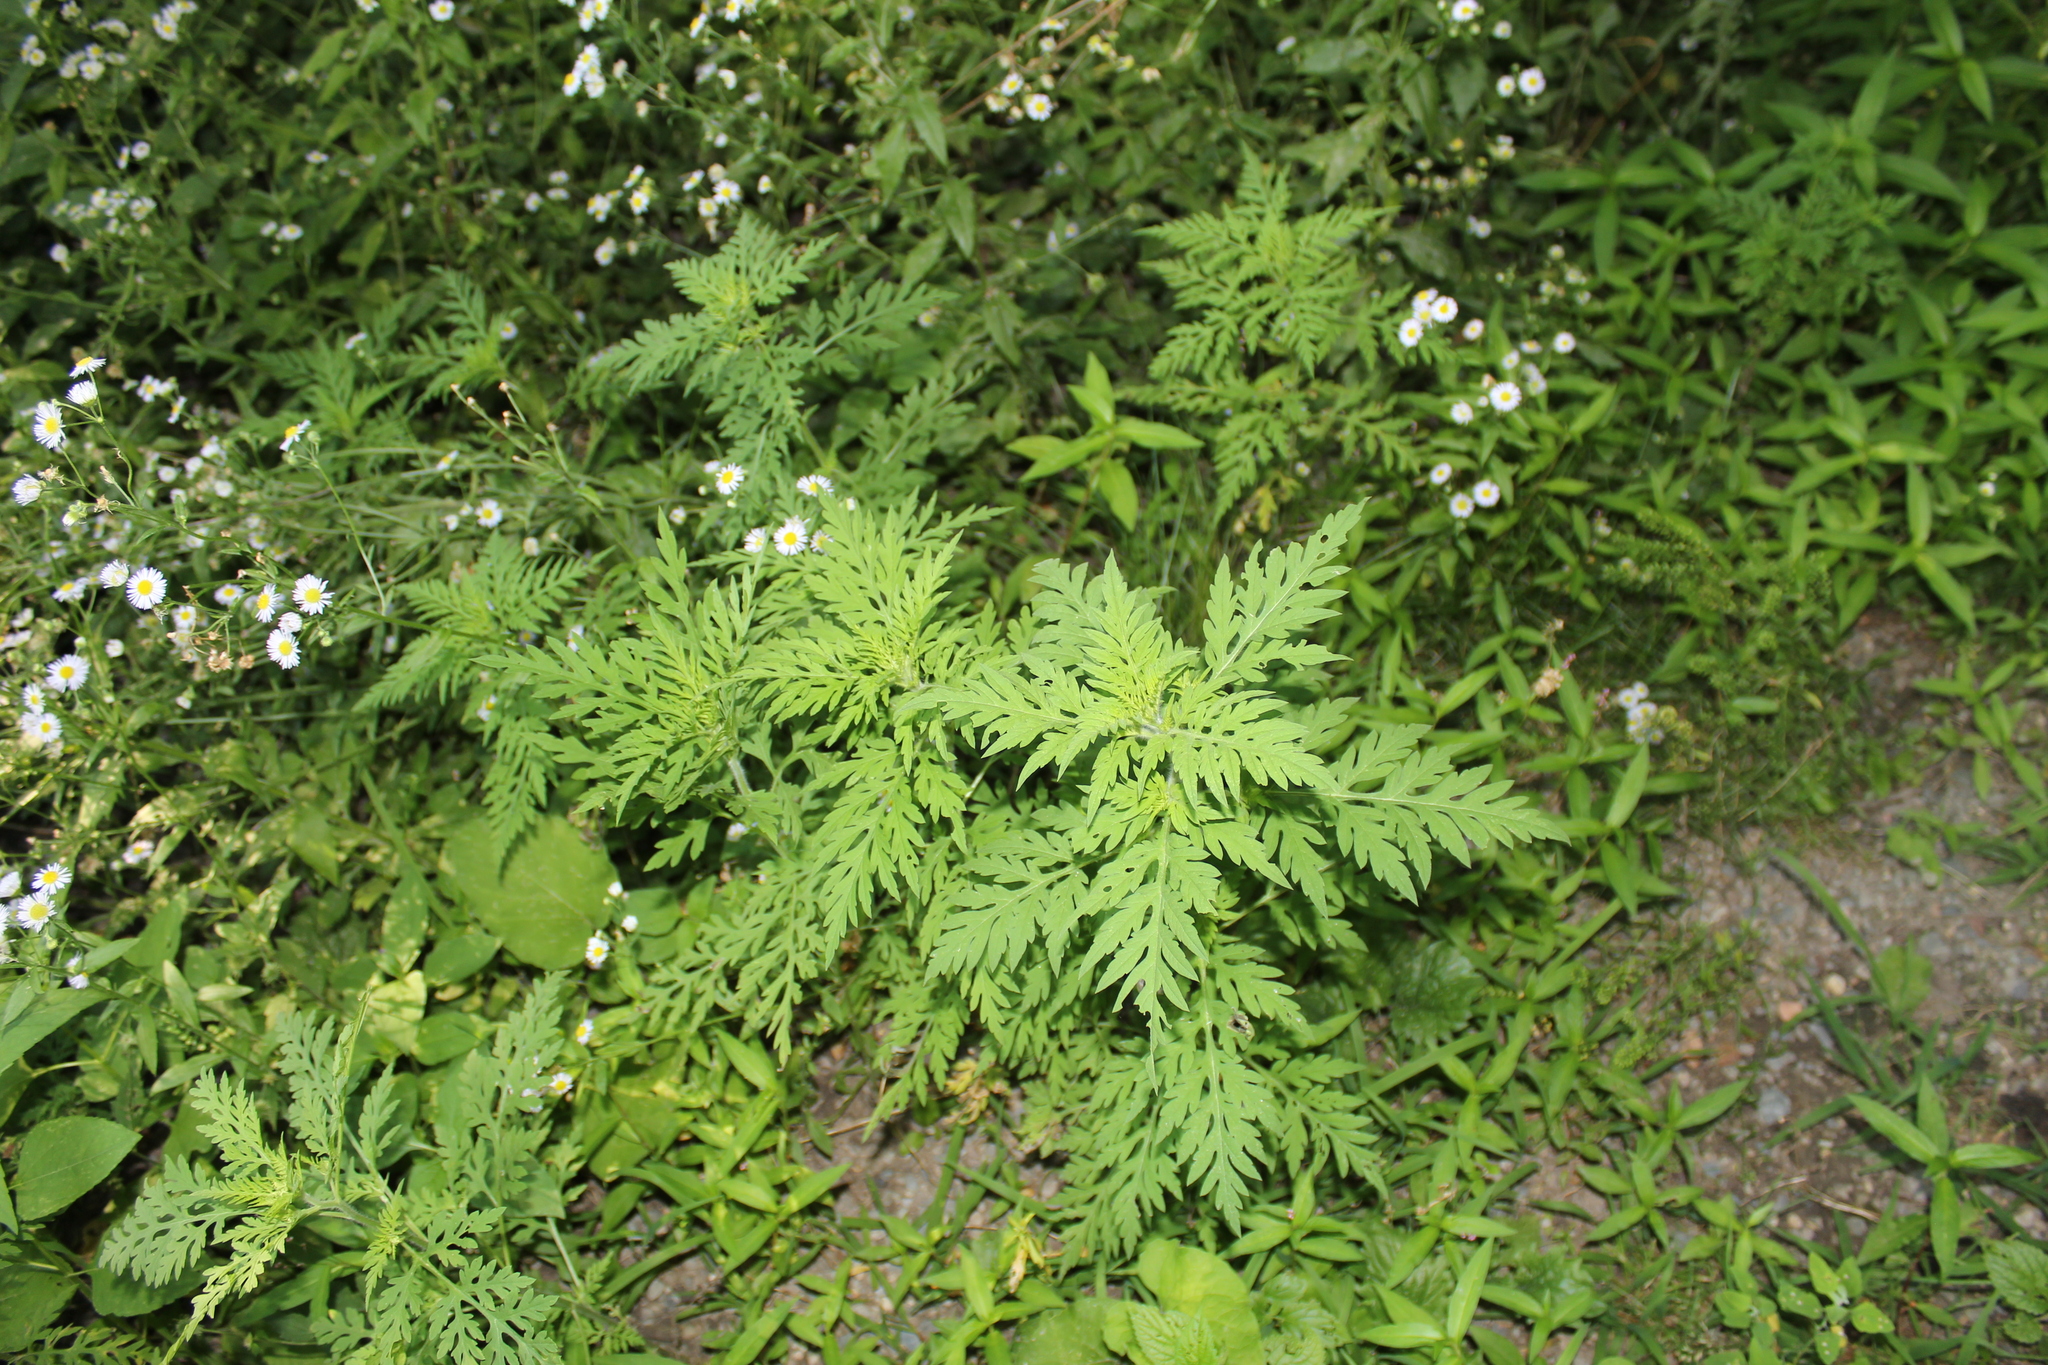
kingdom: Plantae
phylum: Tracheophyta
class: Magnoliopsida
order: Asterales
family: Asteraceae
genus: Ambrosia
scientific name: Ambrosia artemisiifolia
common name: Annual ragweed
